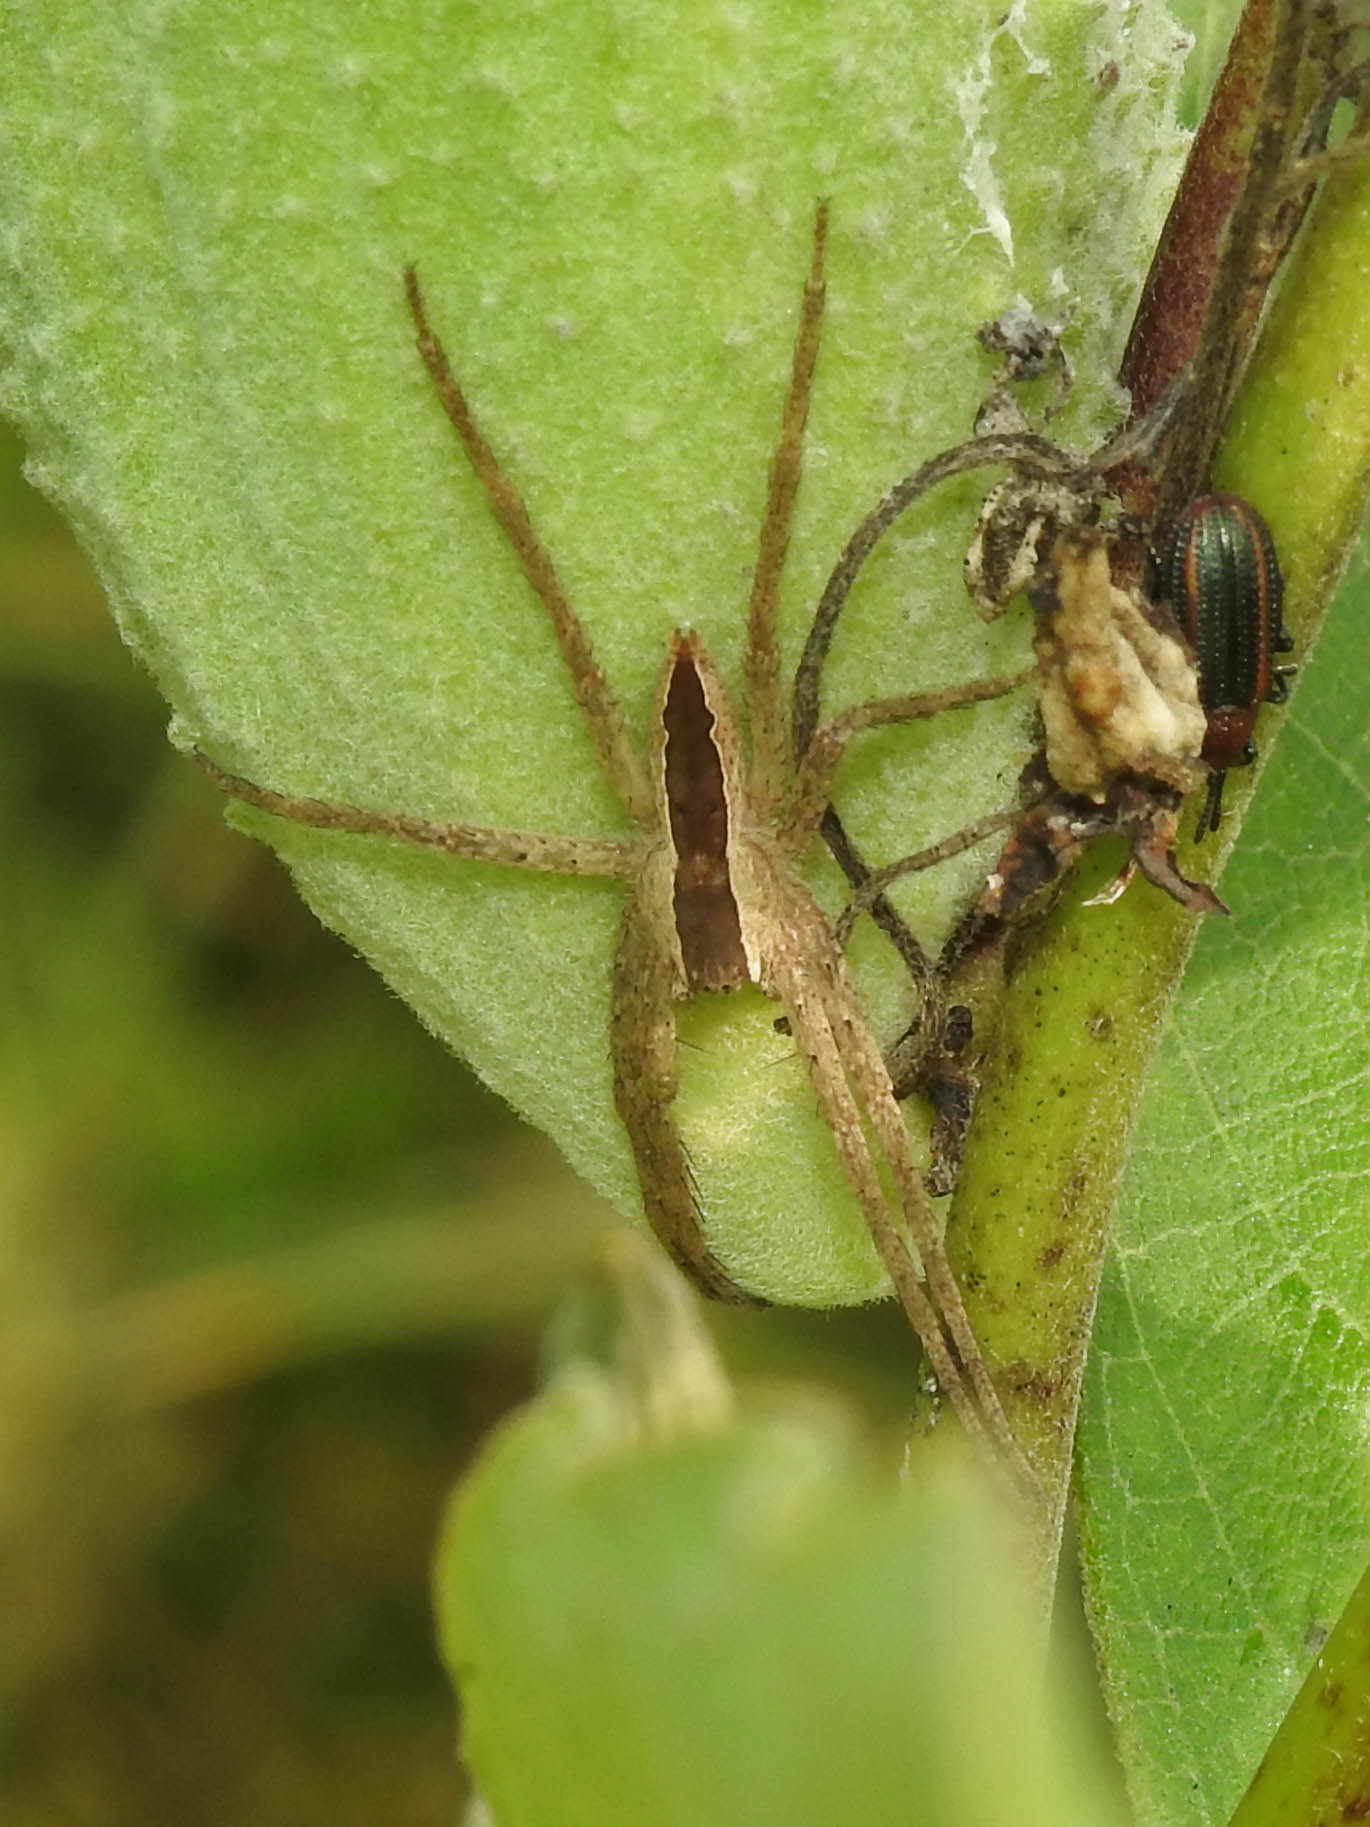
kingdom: Animalia
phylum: Arthropoda
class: Arachnida
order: Araneae
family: Pisauridae
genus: Pisaurina
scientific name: Pisaurina mira
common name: American nursery web spider
